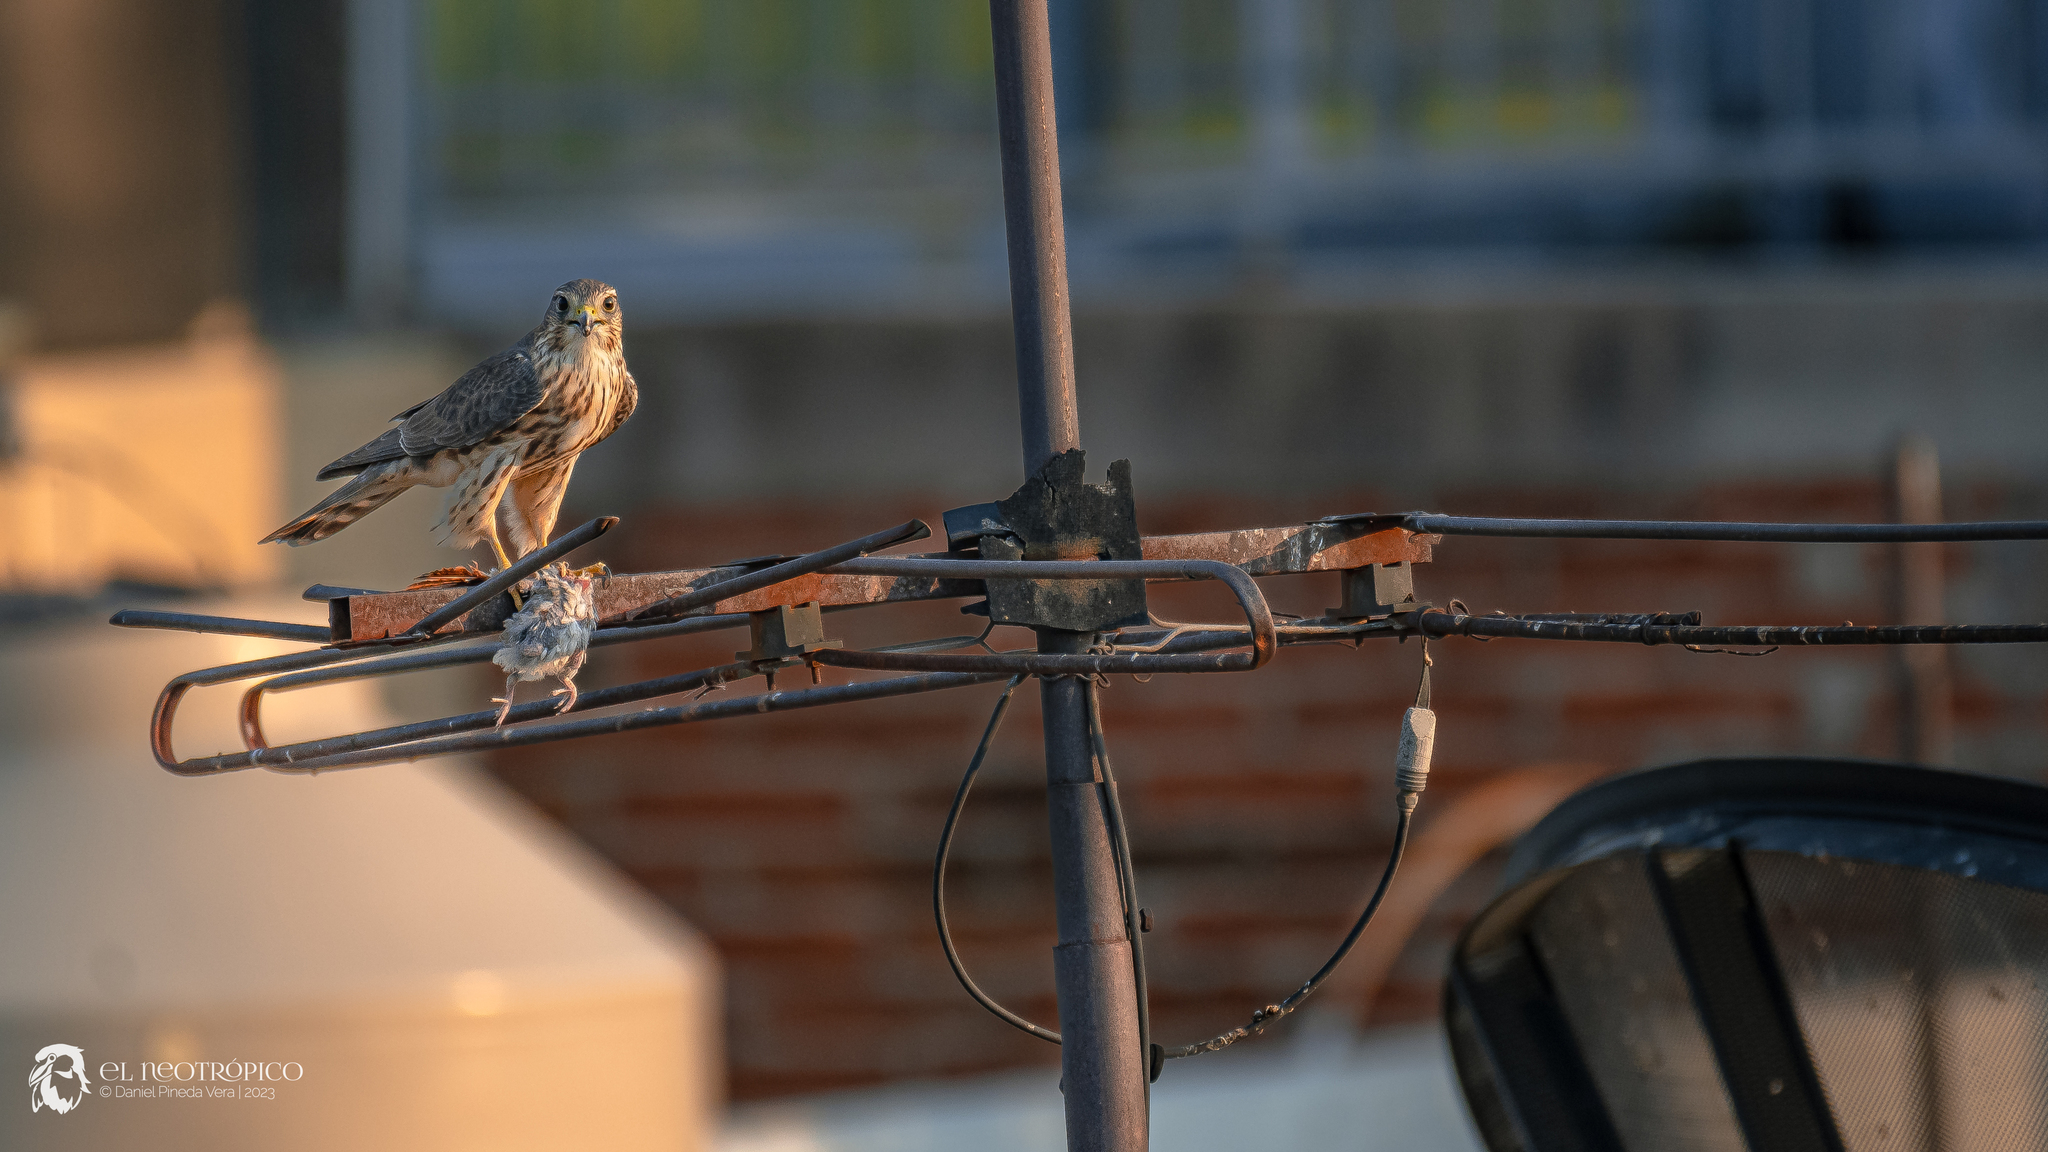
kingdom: Animalia
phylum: Chordata
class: Aves
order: Falconiformes
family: Falconidae
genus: Falco
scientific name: Falco columbarius
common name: Merlin
